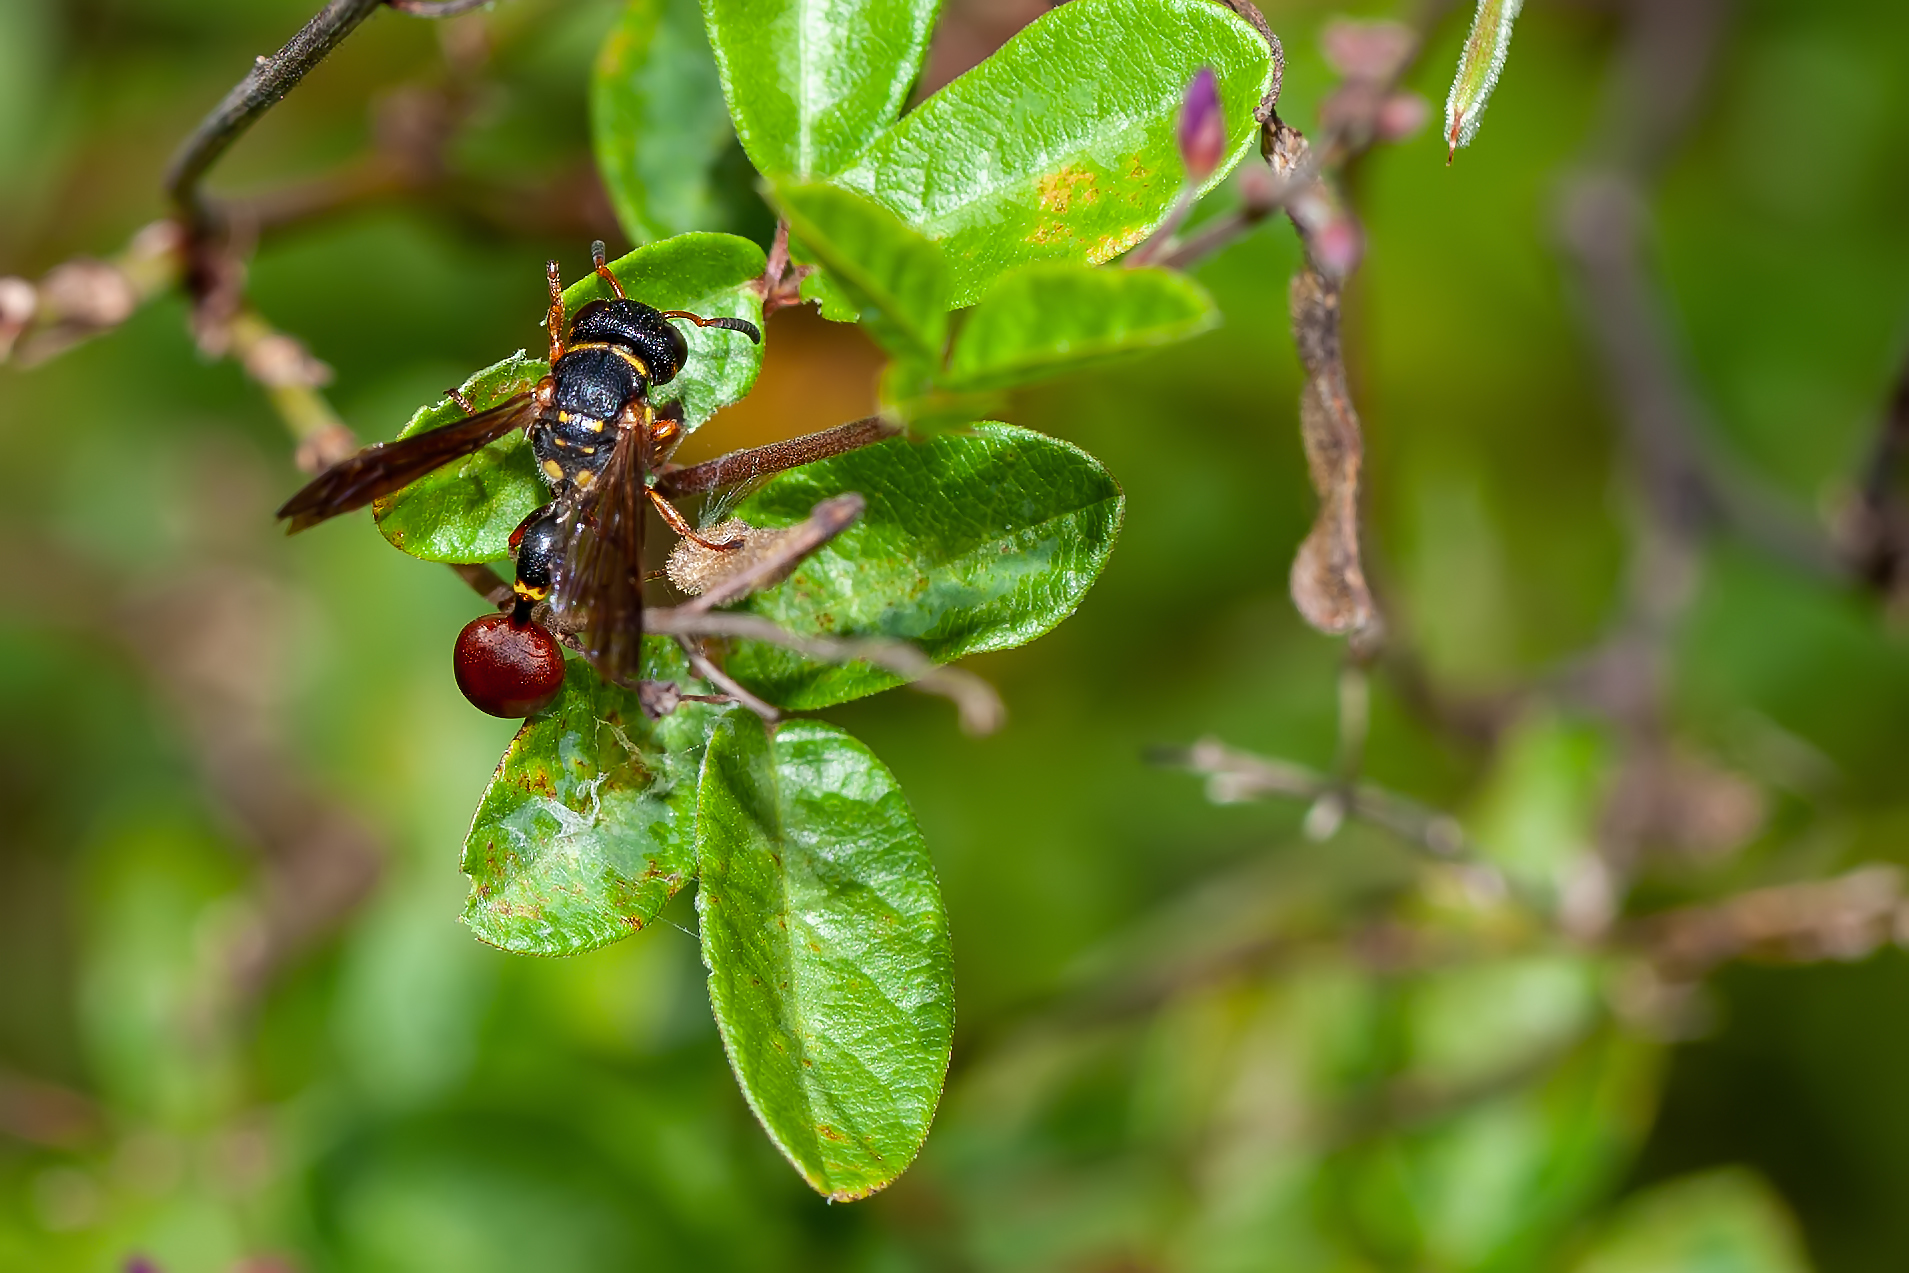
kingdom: Animalia
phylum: Arthropoda
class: Insecta
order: Hymenoptera
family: Eumenidae
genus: Zethus
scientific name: Zethus slossonae
